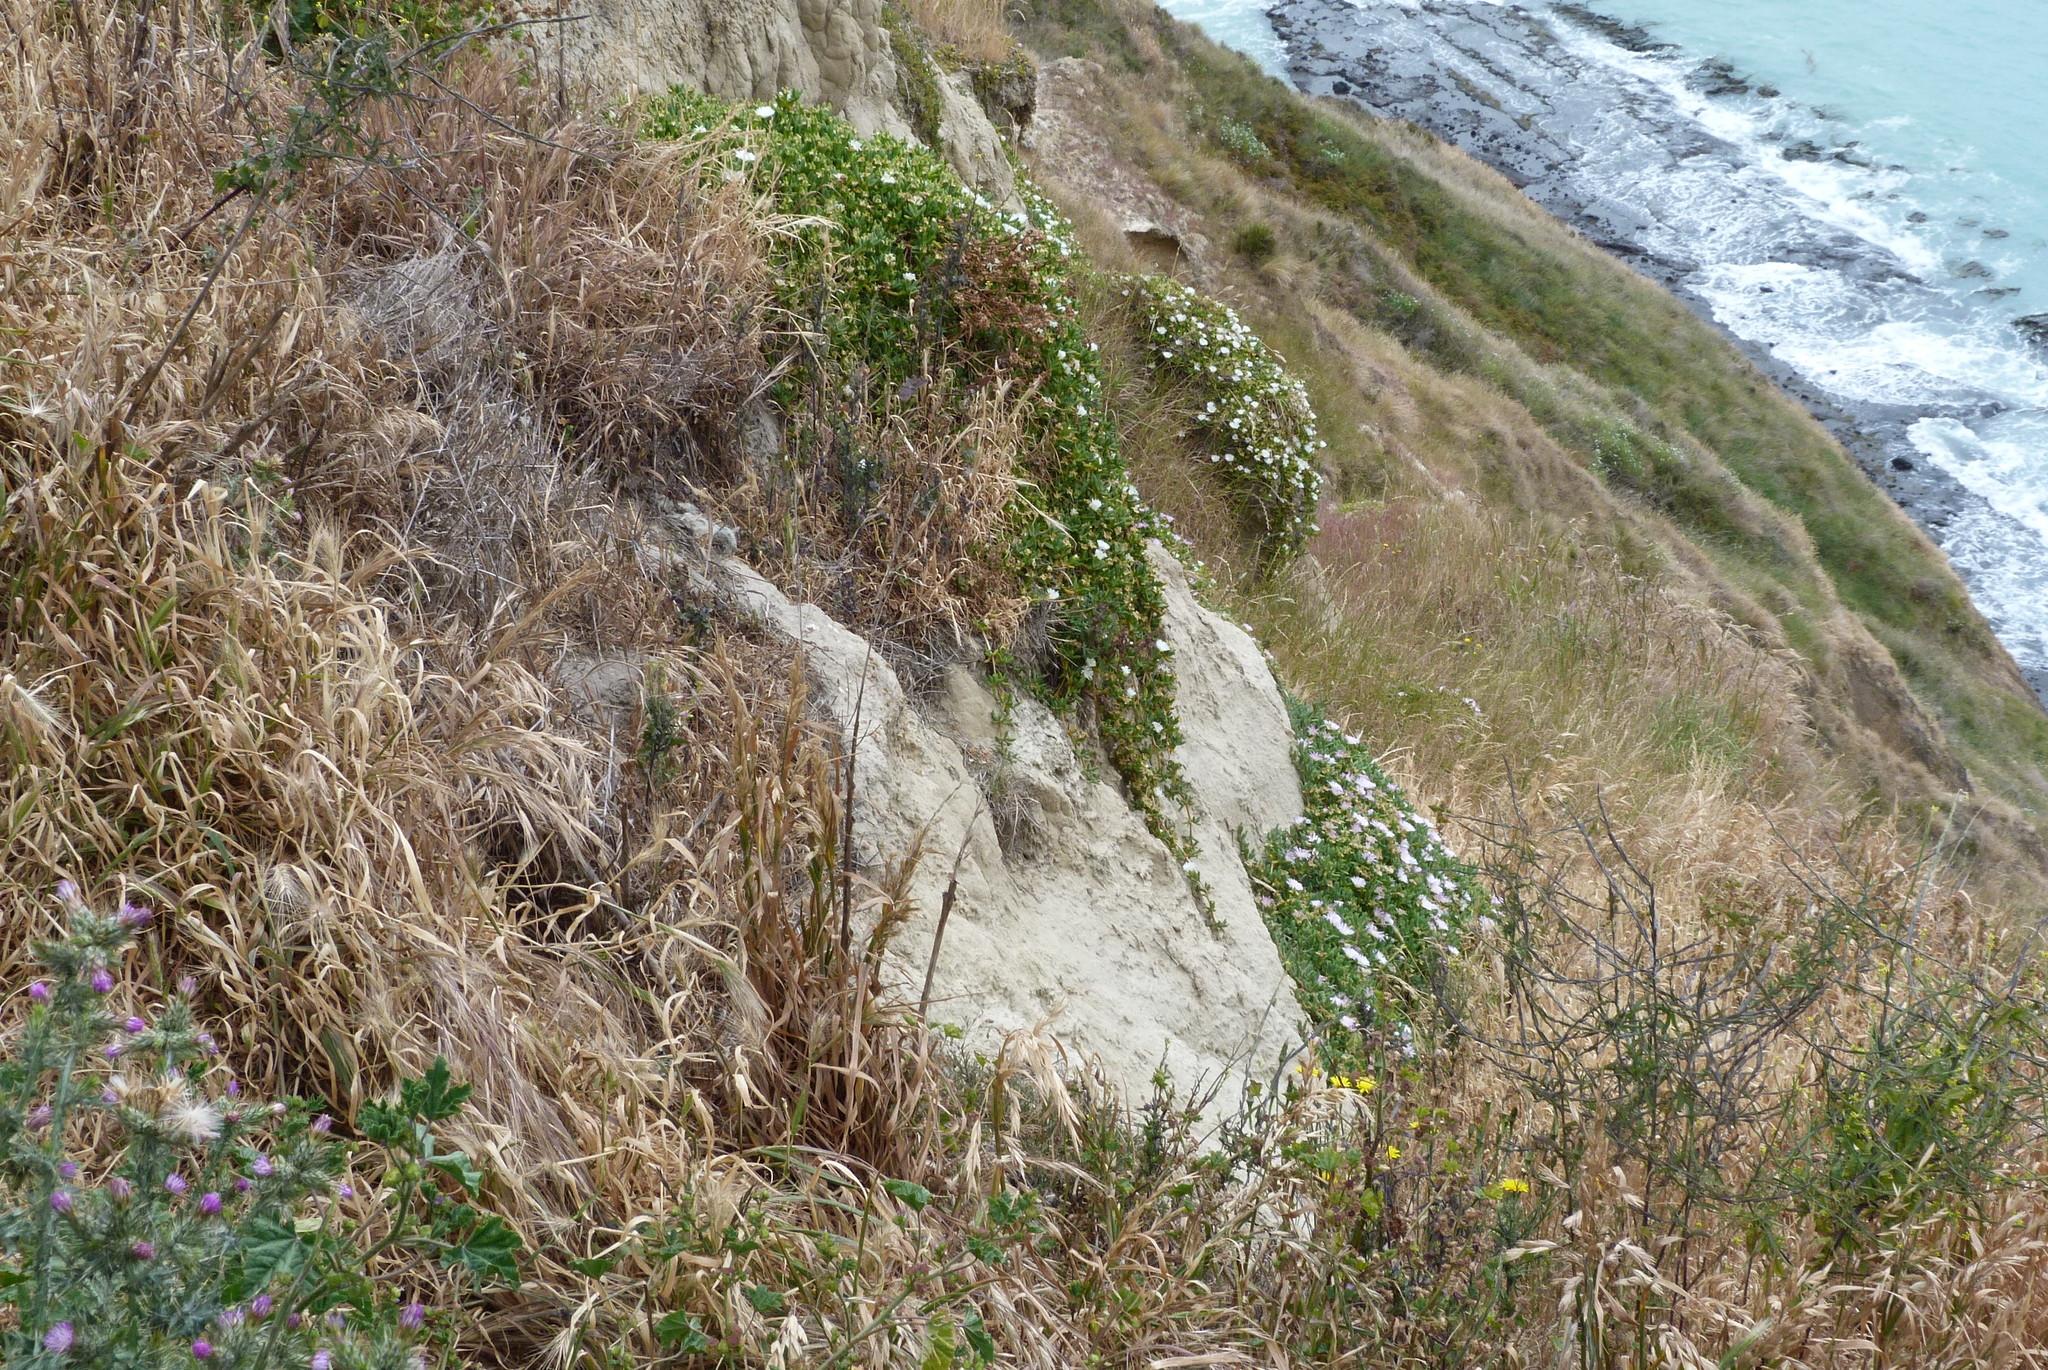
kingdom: Plantae
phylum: Tracheophyta
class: Magnoliopsida
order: Caryophyllales
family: Aizoaceae
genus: Disphyma
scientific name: Disphyma australe
